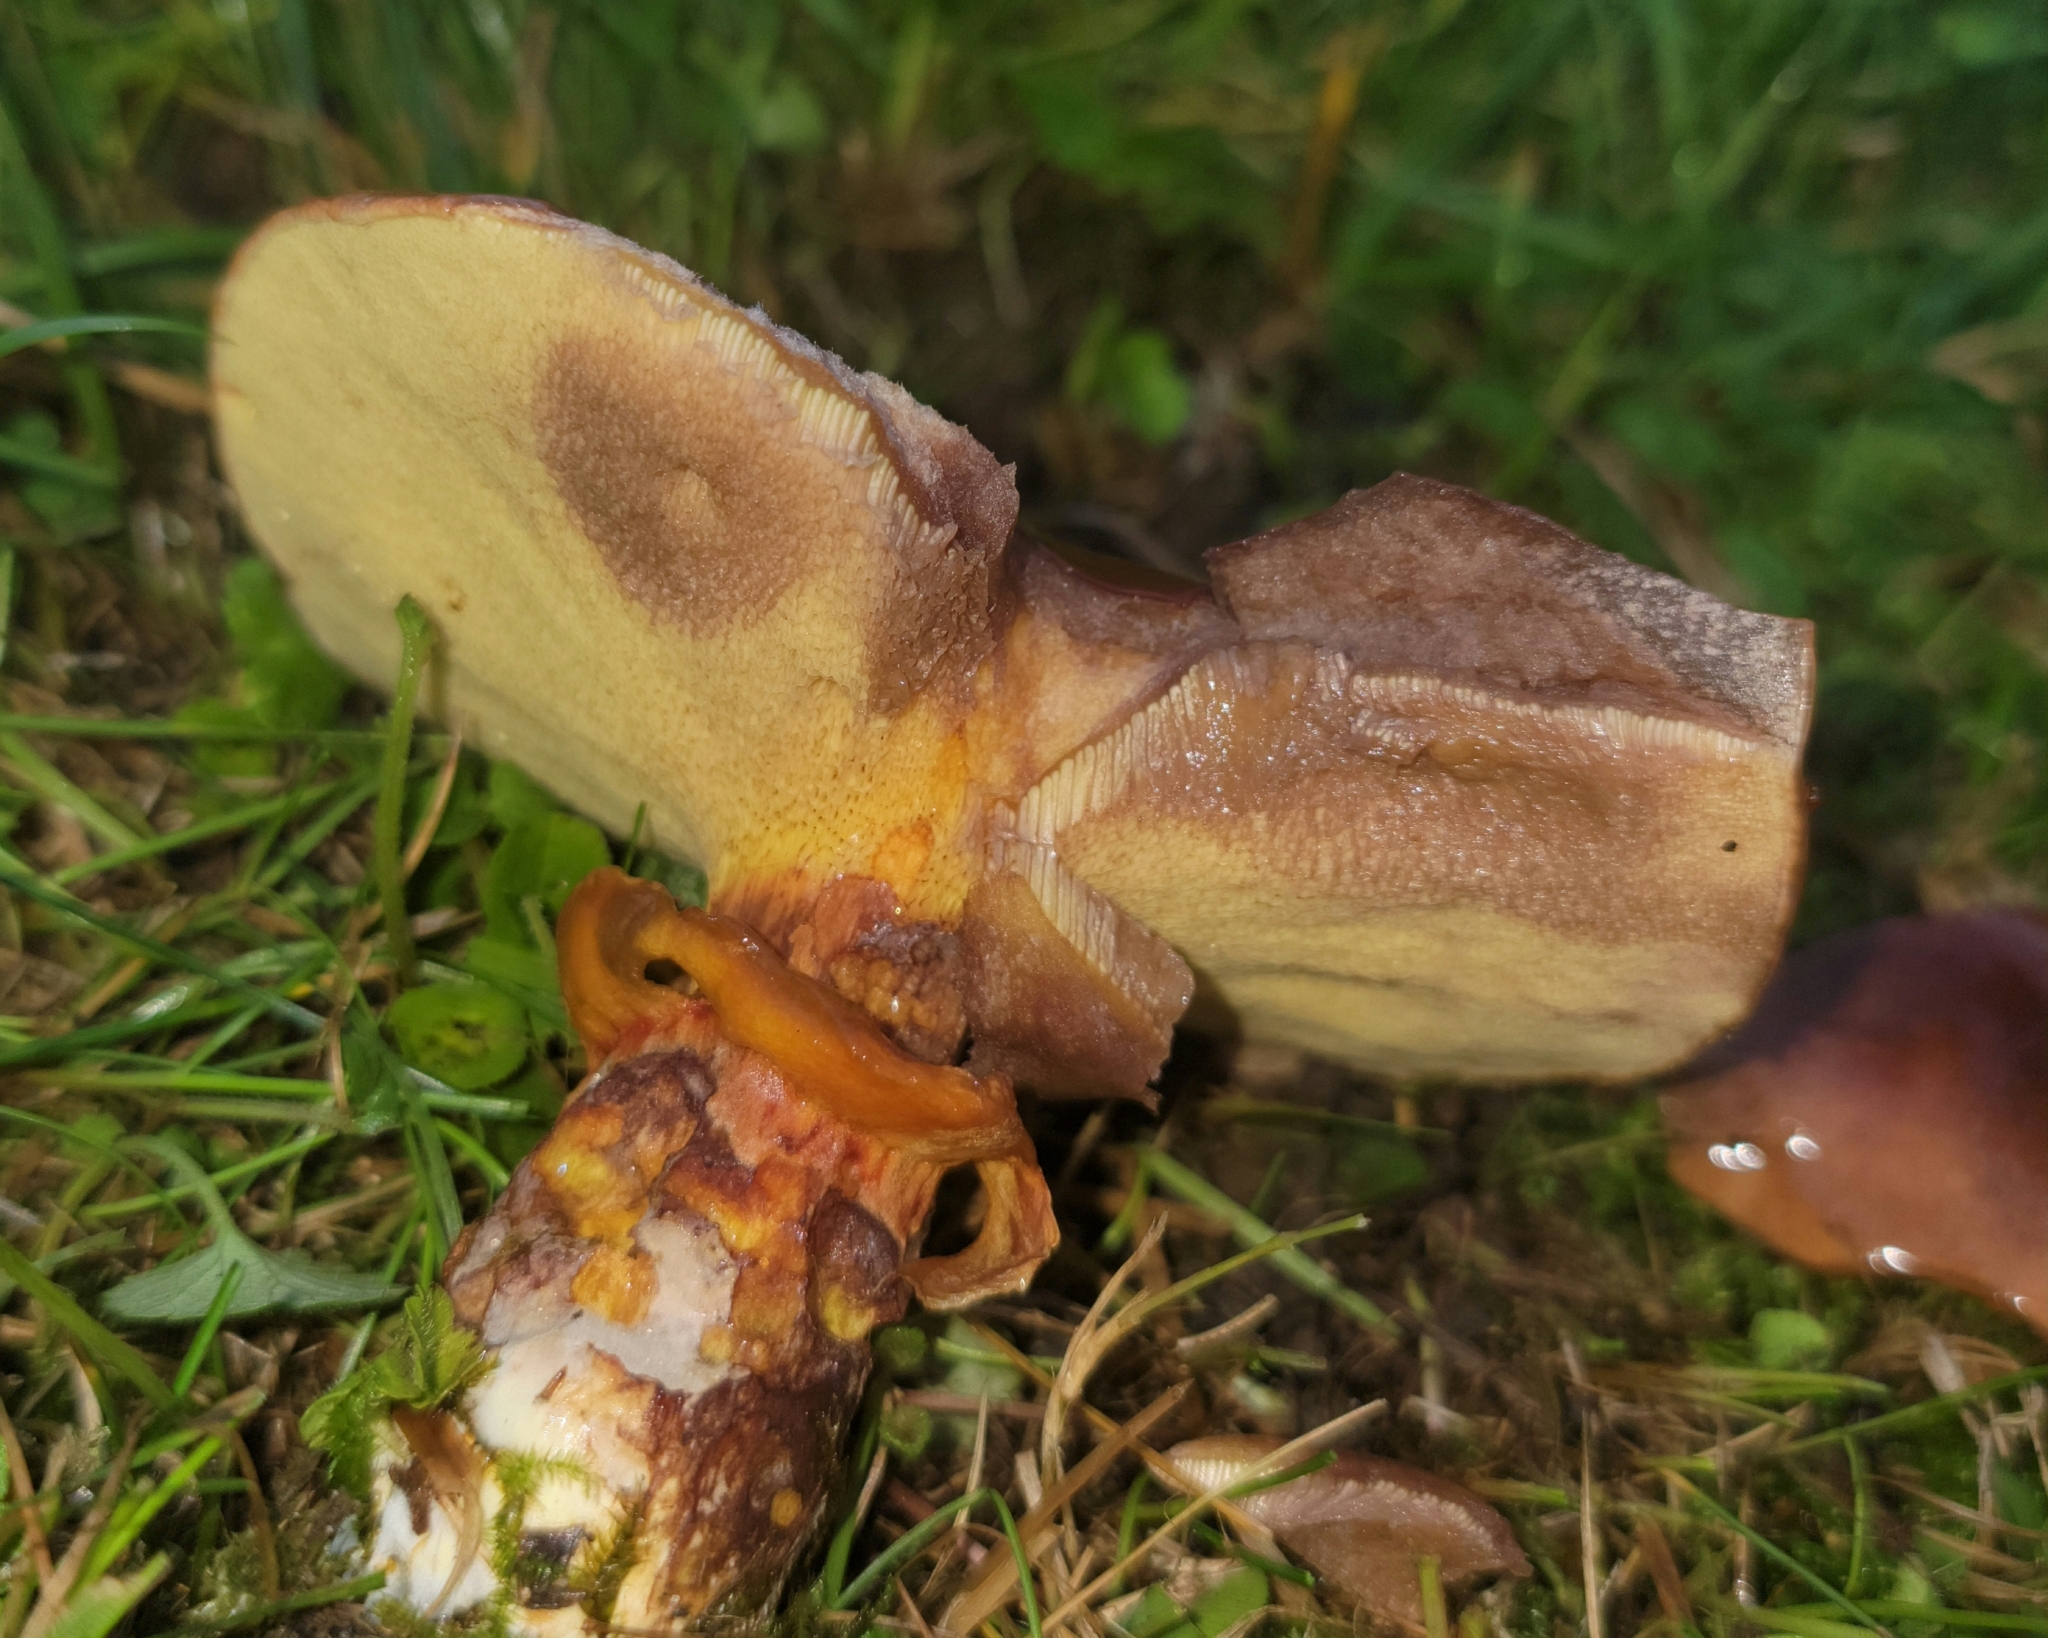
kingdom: Fungi
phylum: Basidiomycota
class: Agaricomycetes
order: Boletales
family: Suillaceae
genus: Suillus
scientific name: Suillus grevillei
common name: Larch bolete
